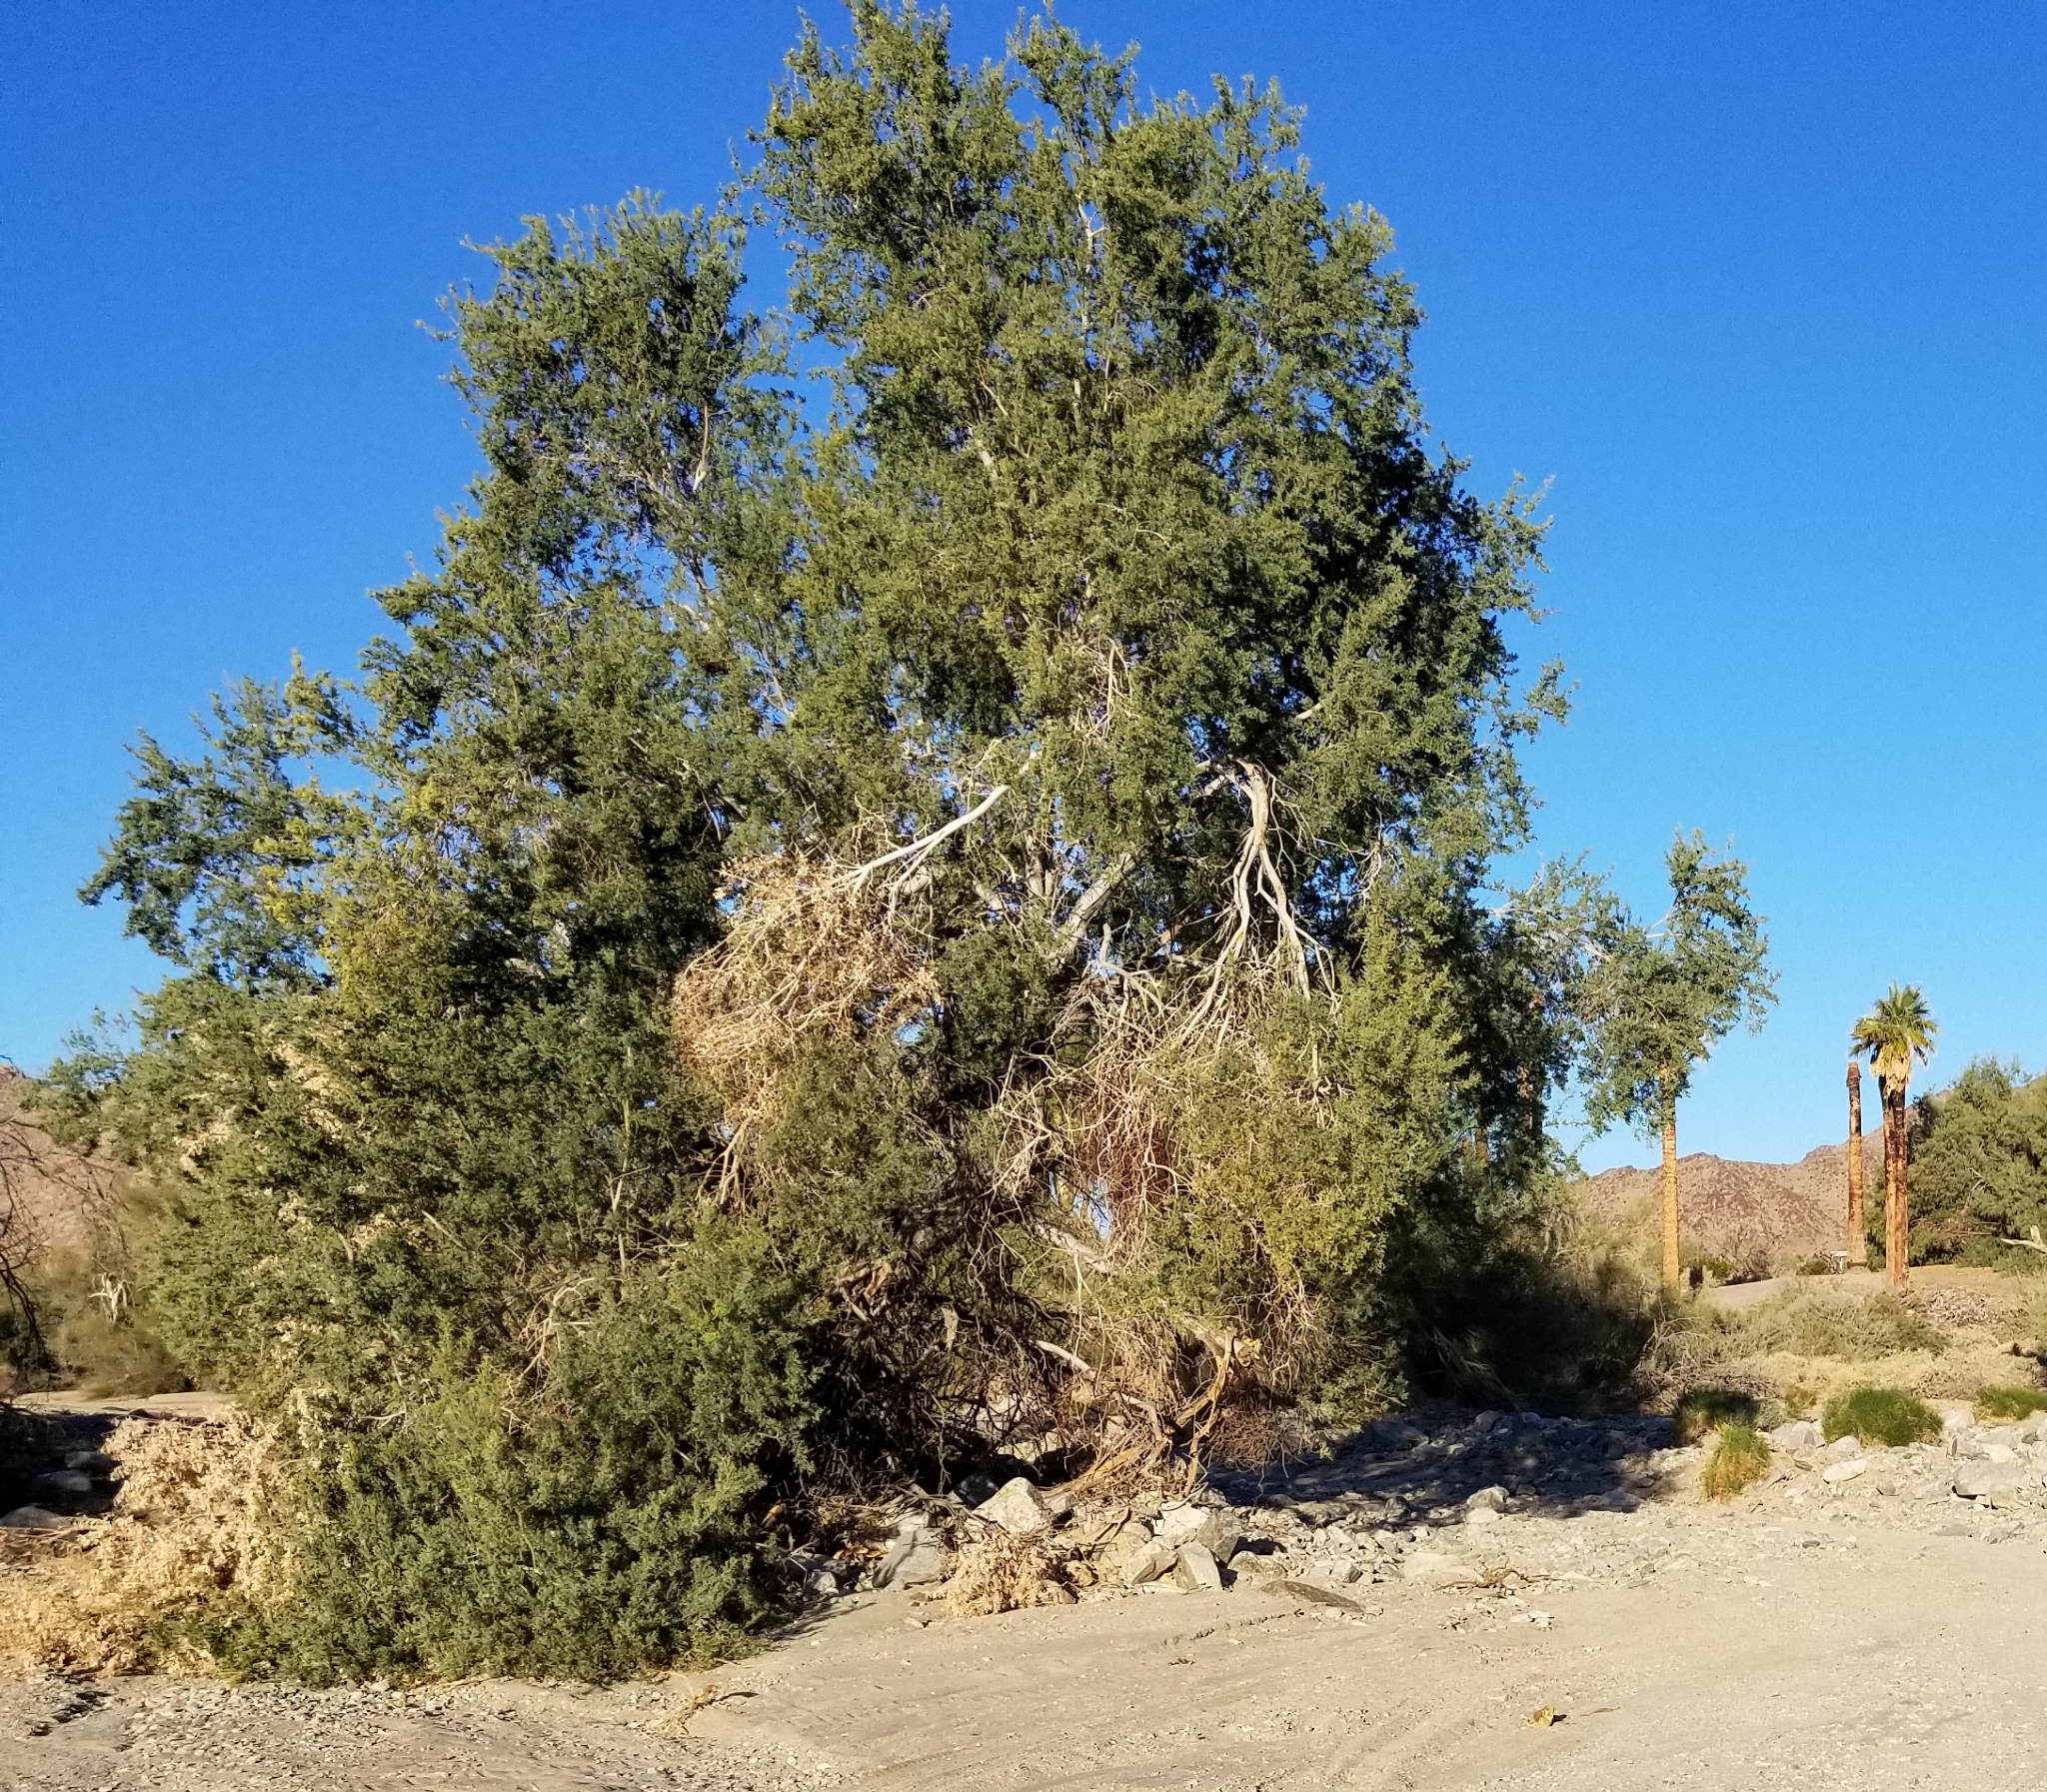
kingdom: Plantae
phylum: Tracheophyta
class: Magnoliopsida
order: Fabales
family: Fabaceae
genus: Olneya
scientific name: Olneya tesota
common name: Desert ironwood
